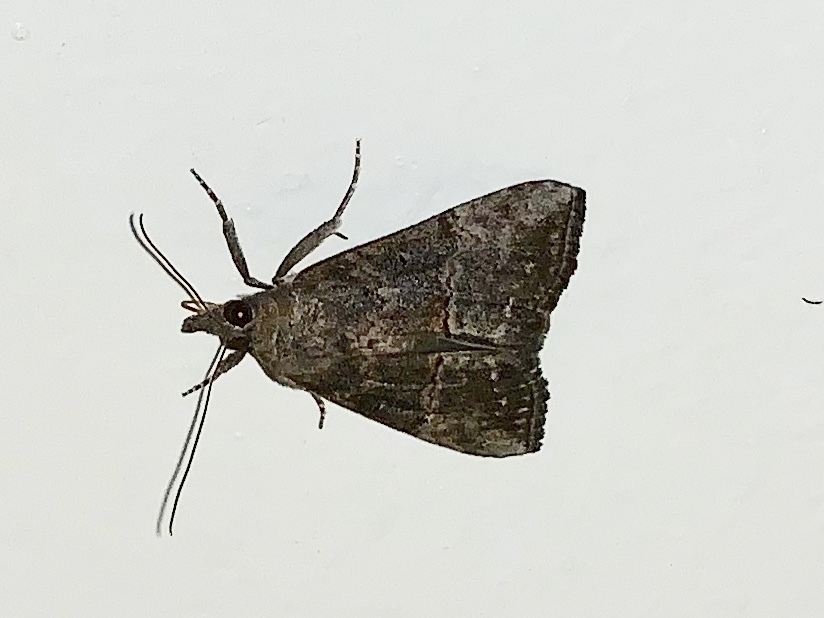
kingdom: Animalia
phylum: Arthropoda
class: Insecta
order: Lepidoptera
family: Erebidae
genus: Hypena
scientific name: Hypena scabra
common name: Green cloverworm
